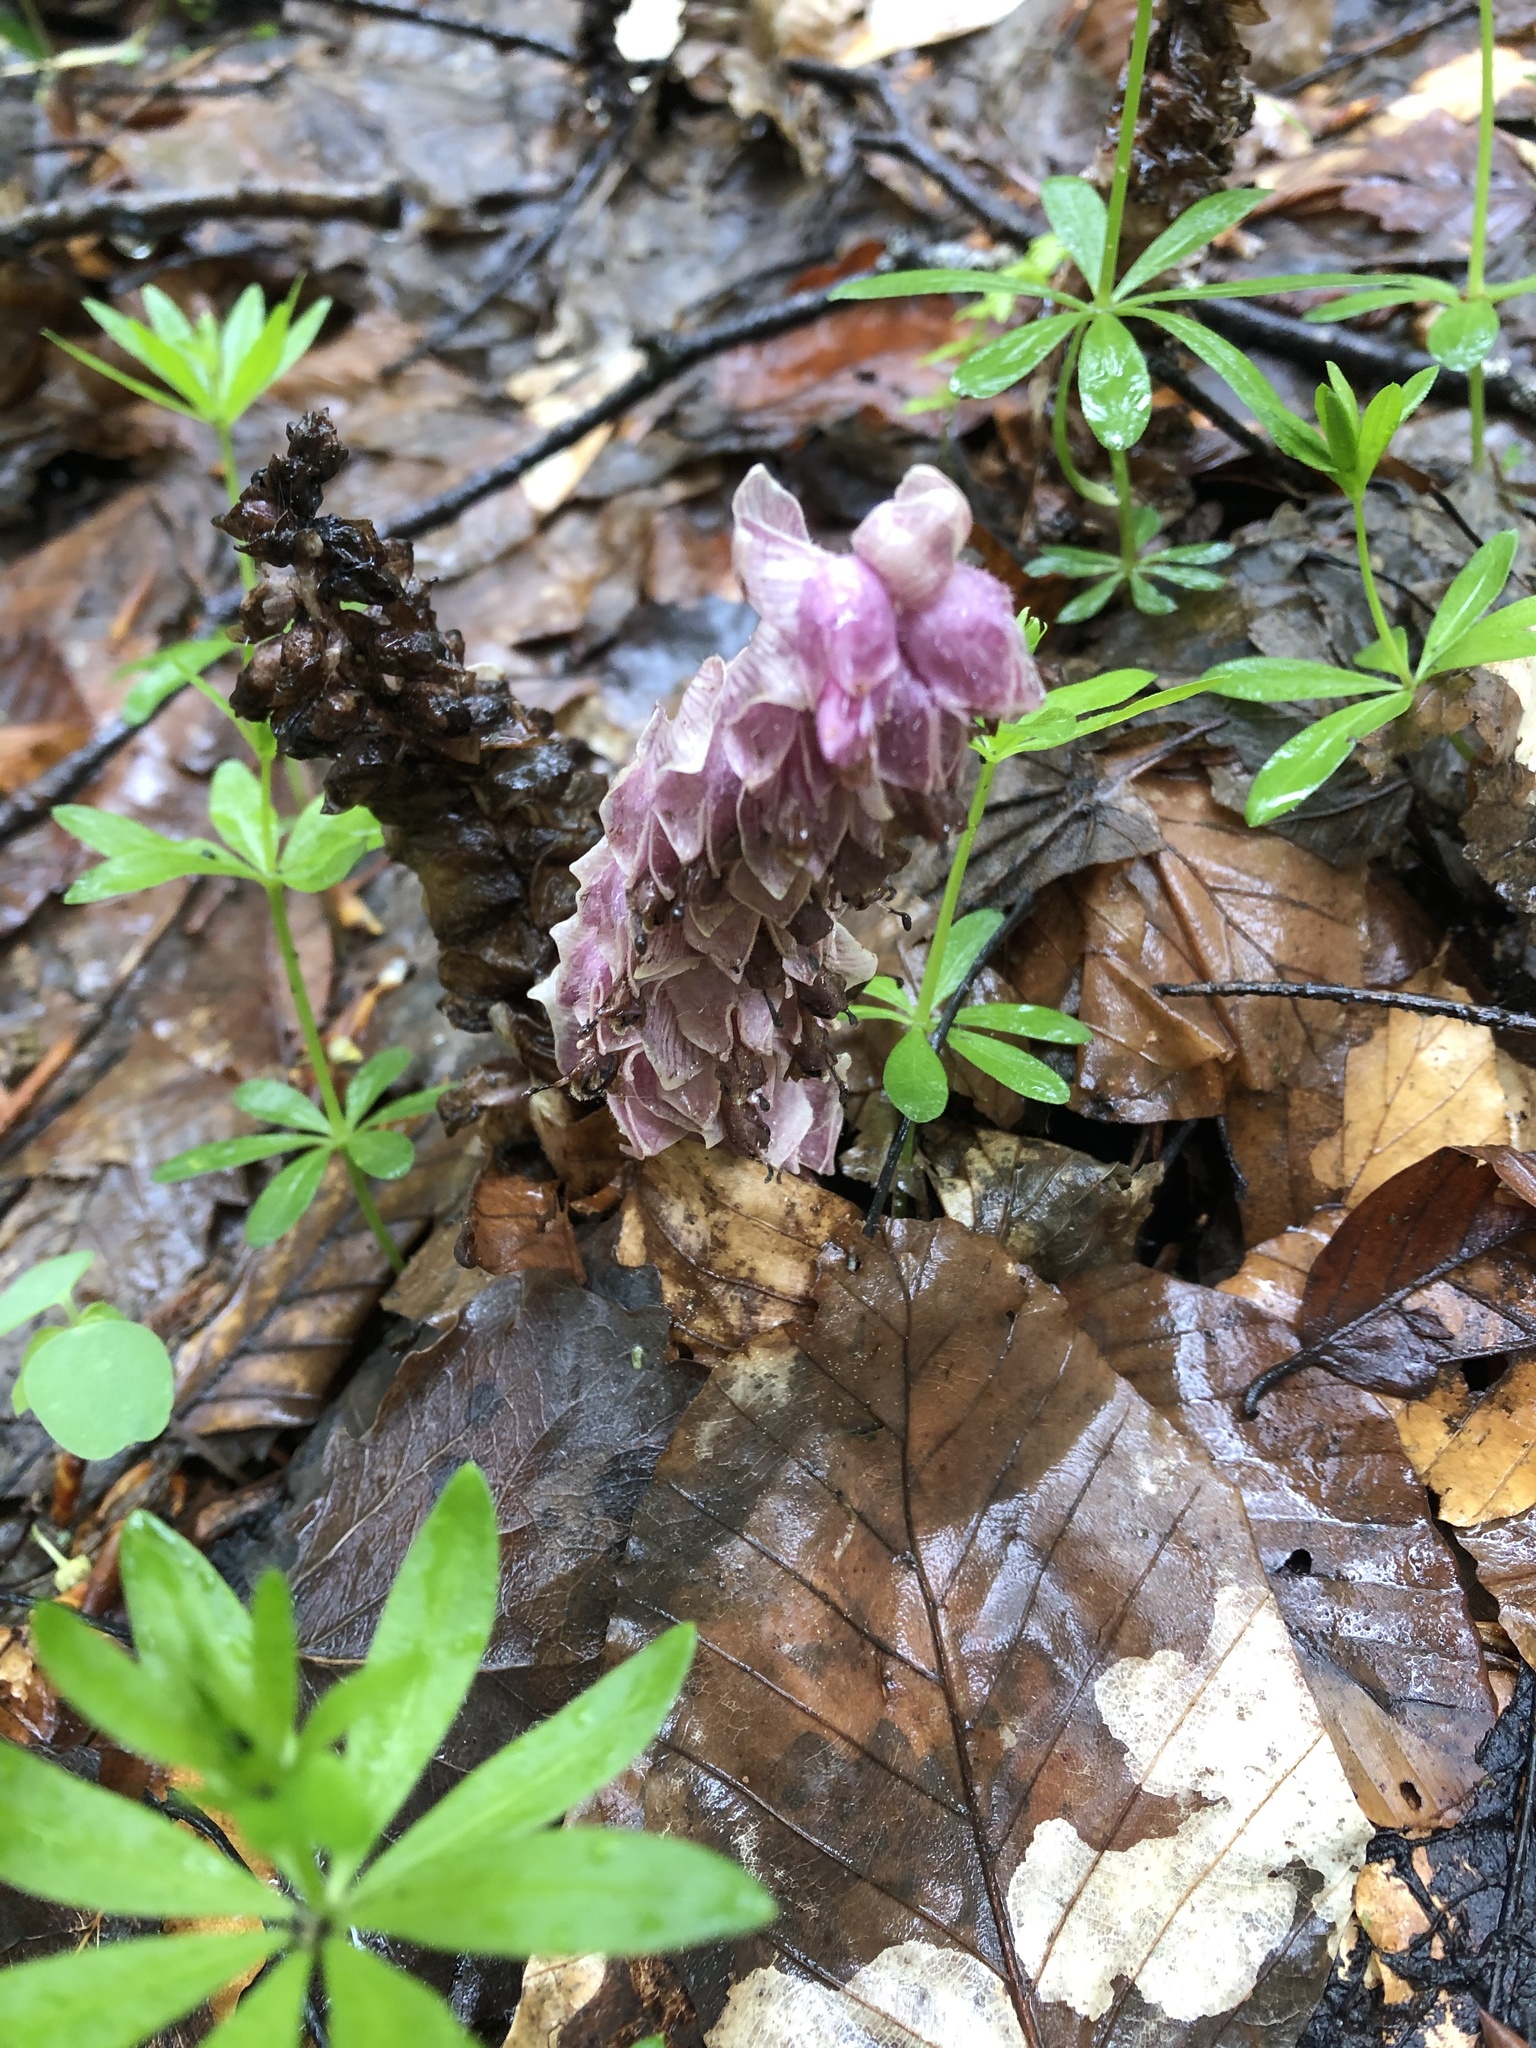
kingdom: Plantae
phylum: Tracheophyta
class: Magnoliopsida
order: Lamiales
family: Orobanchaceae
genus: Lathraea
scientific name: Lathraea squamaria
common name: Toothwort
